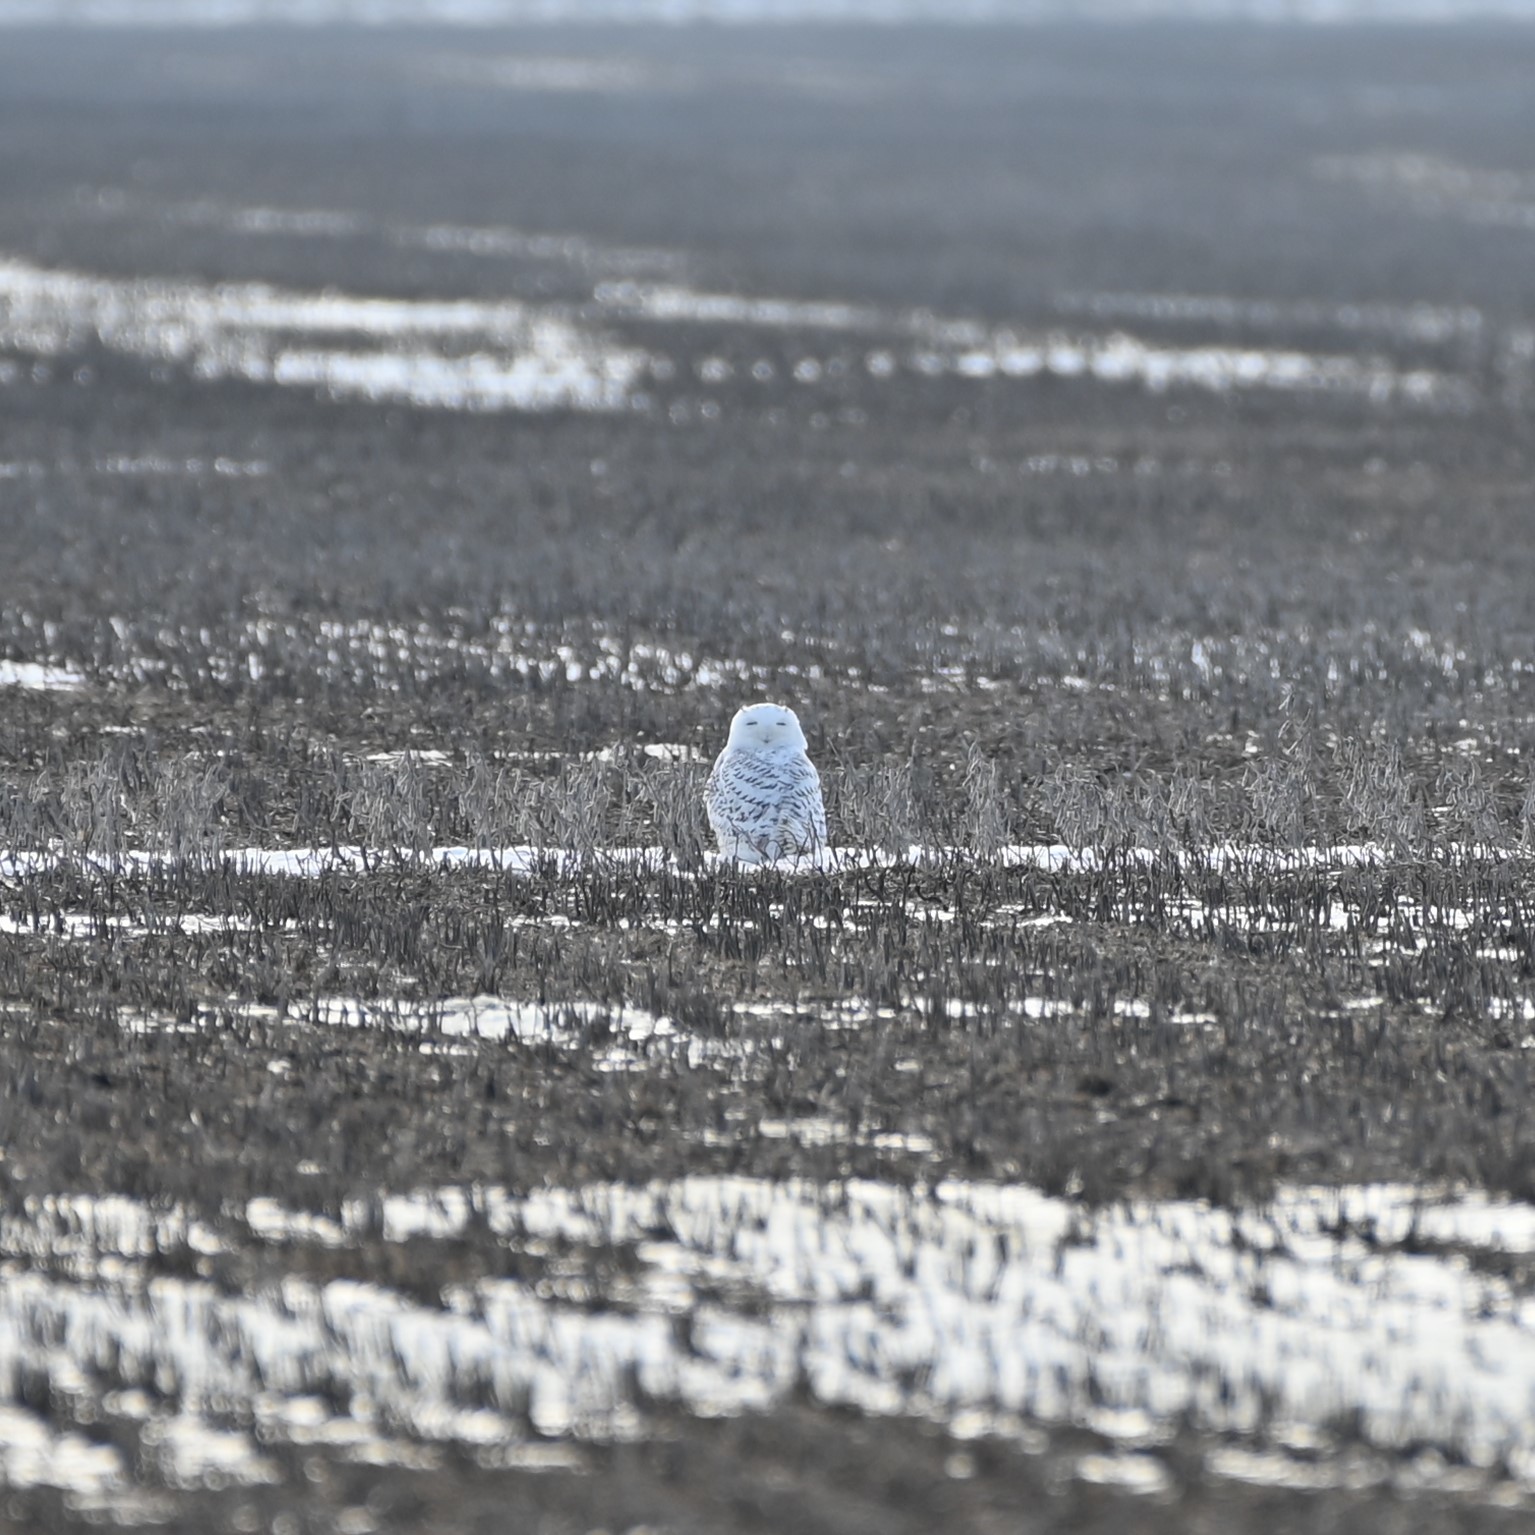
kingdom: Animalia
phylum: Chordata
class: Aves
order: Strigiformes
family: Strigidae
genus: Bubo
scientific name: Bubo scandiacus
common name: Snowy owl
